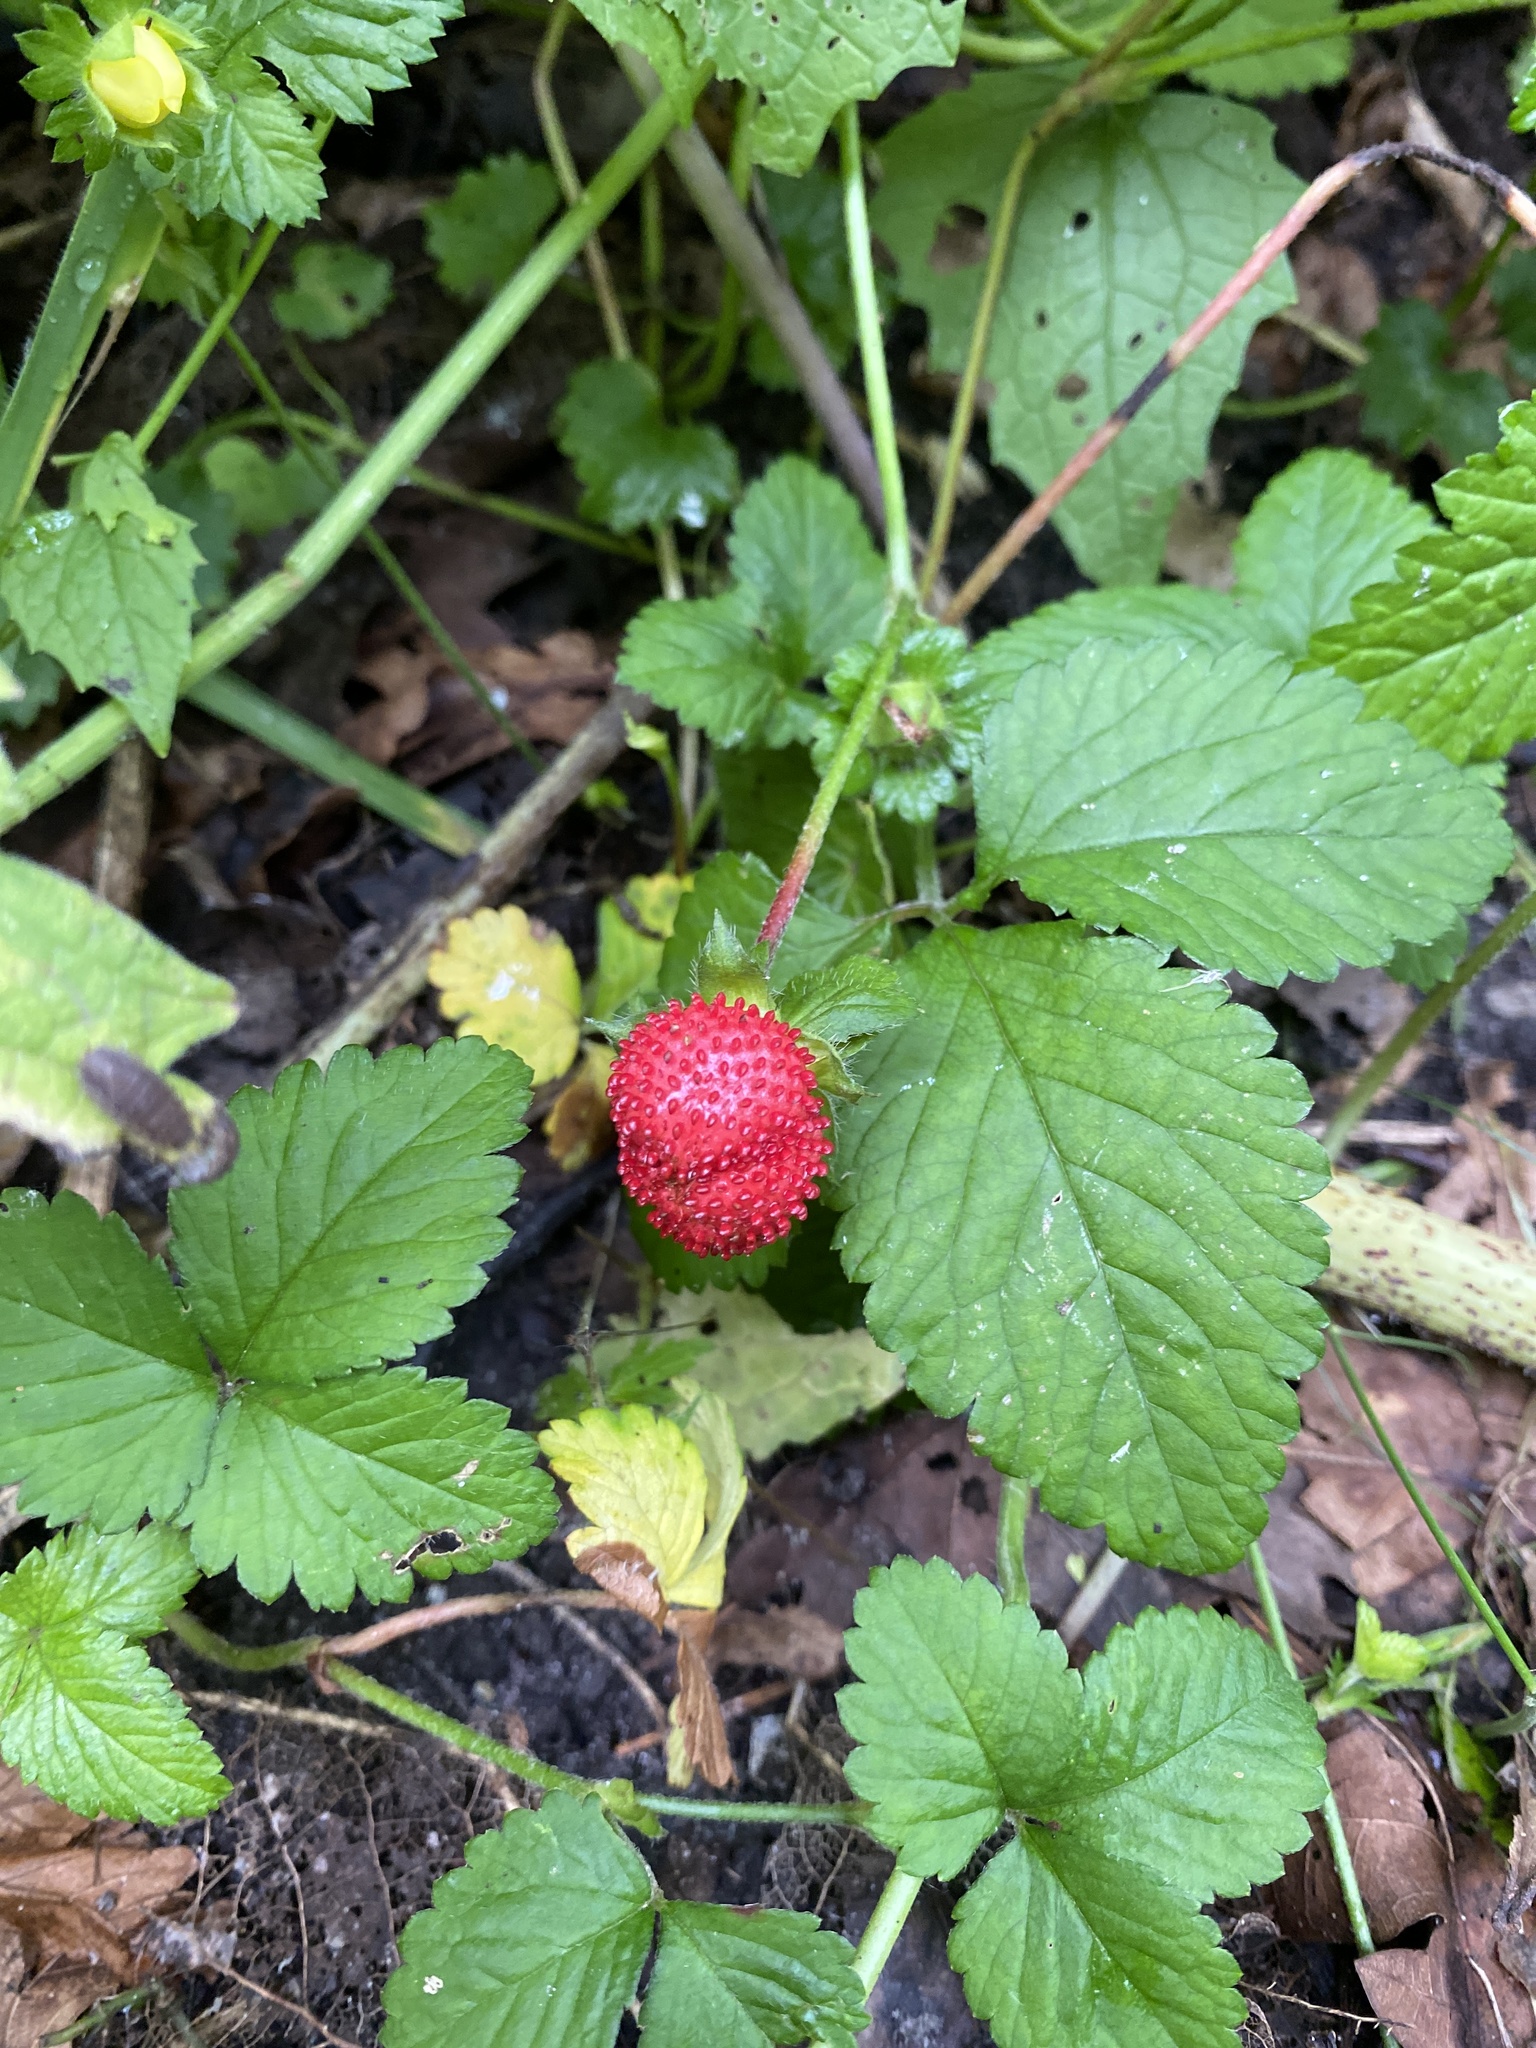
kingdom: Plantae
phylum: Tracheophyta
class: Magnoliopsida
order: Rosales
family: Rosaceae
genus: Potentilla
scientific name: Potentilla indica
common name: Yellow-flowered strawberry
